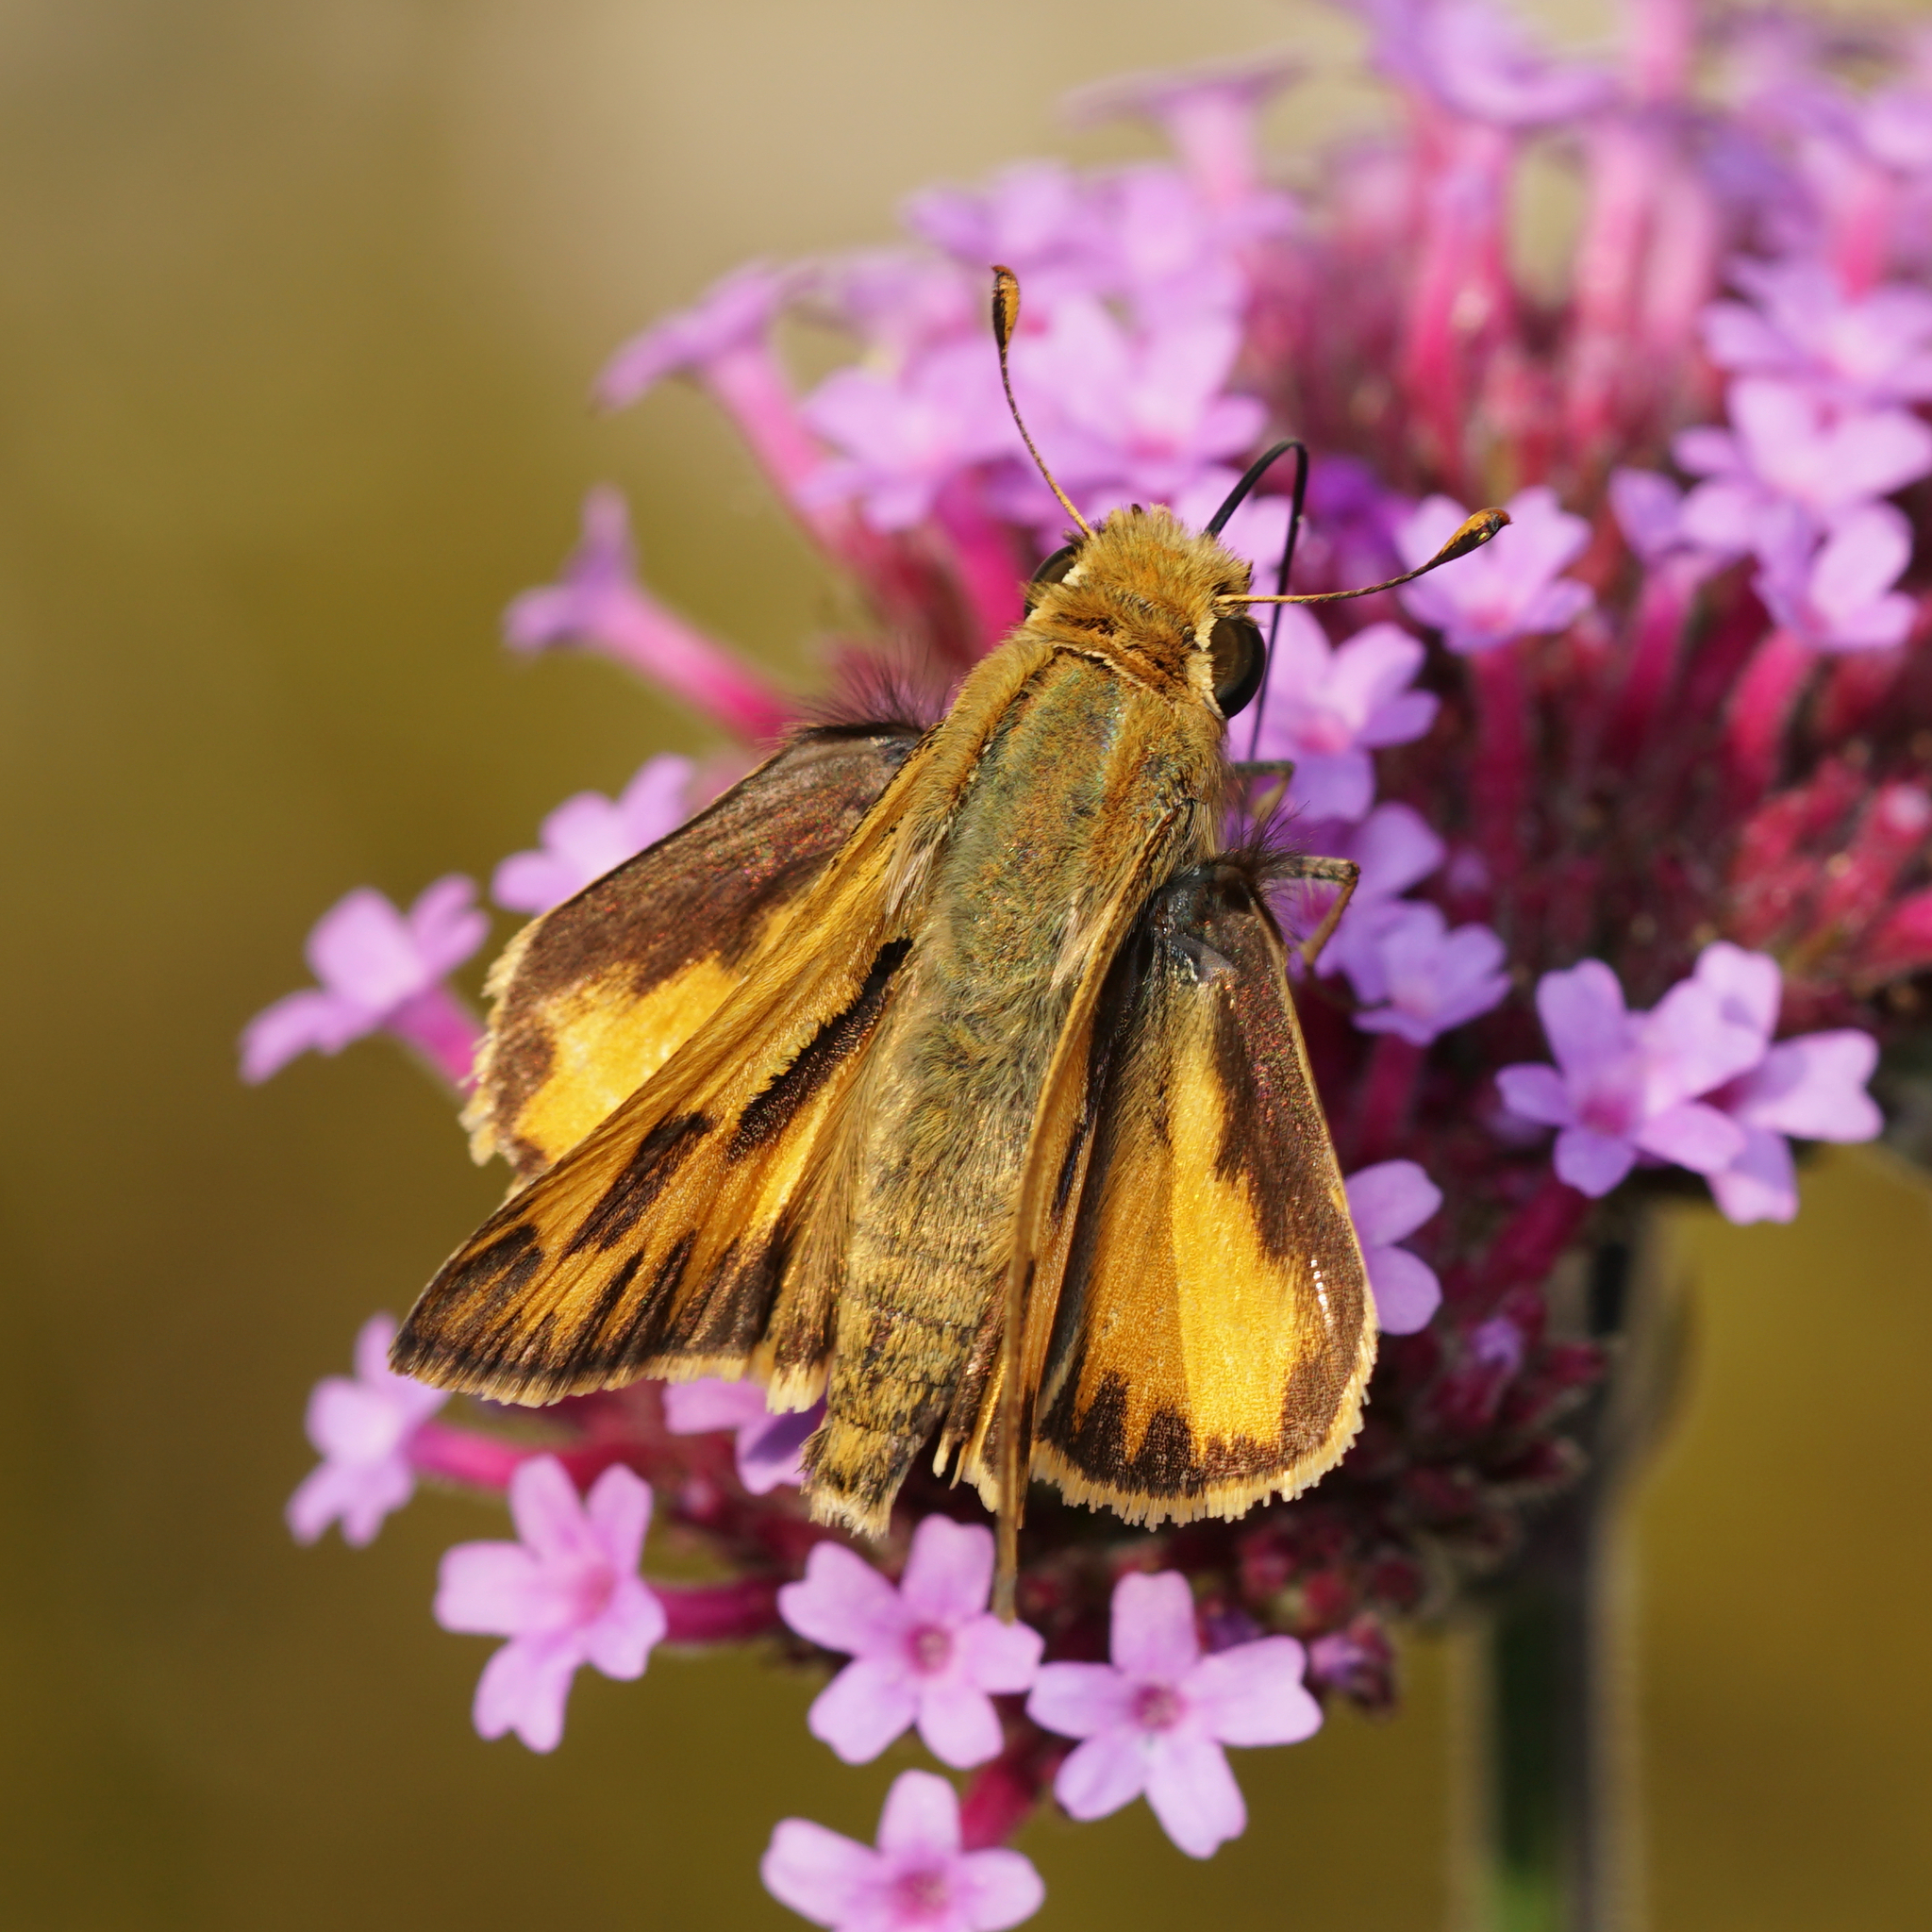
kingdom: Animalia
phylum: Arthropoda
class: Insecta
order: Lepidoptera
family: Hesperiidae
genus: Hylephila
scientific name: Hylephila phyleus
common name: Fiery skipper
